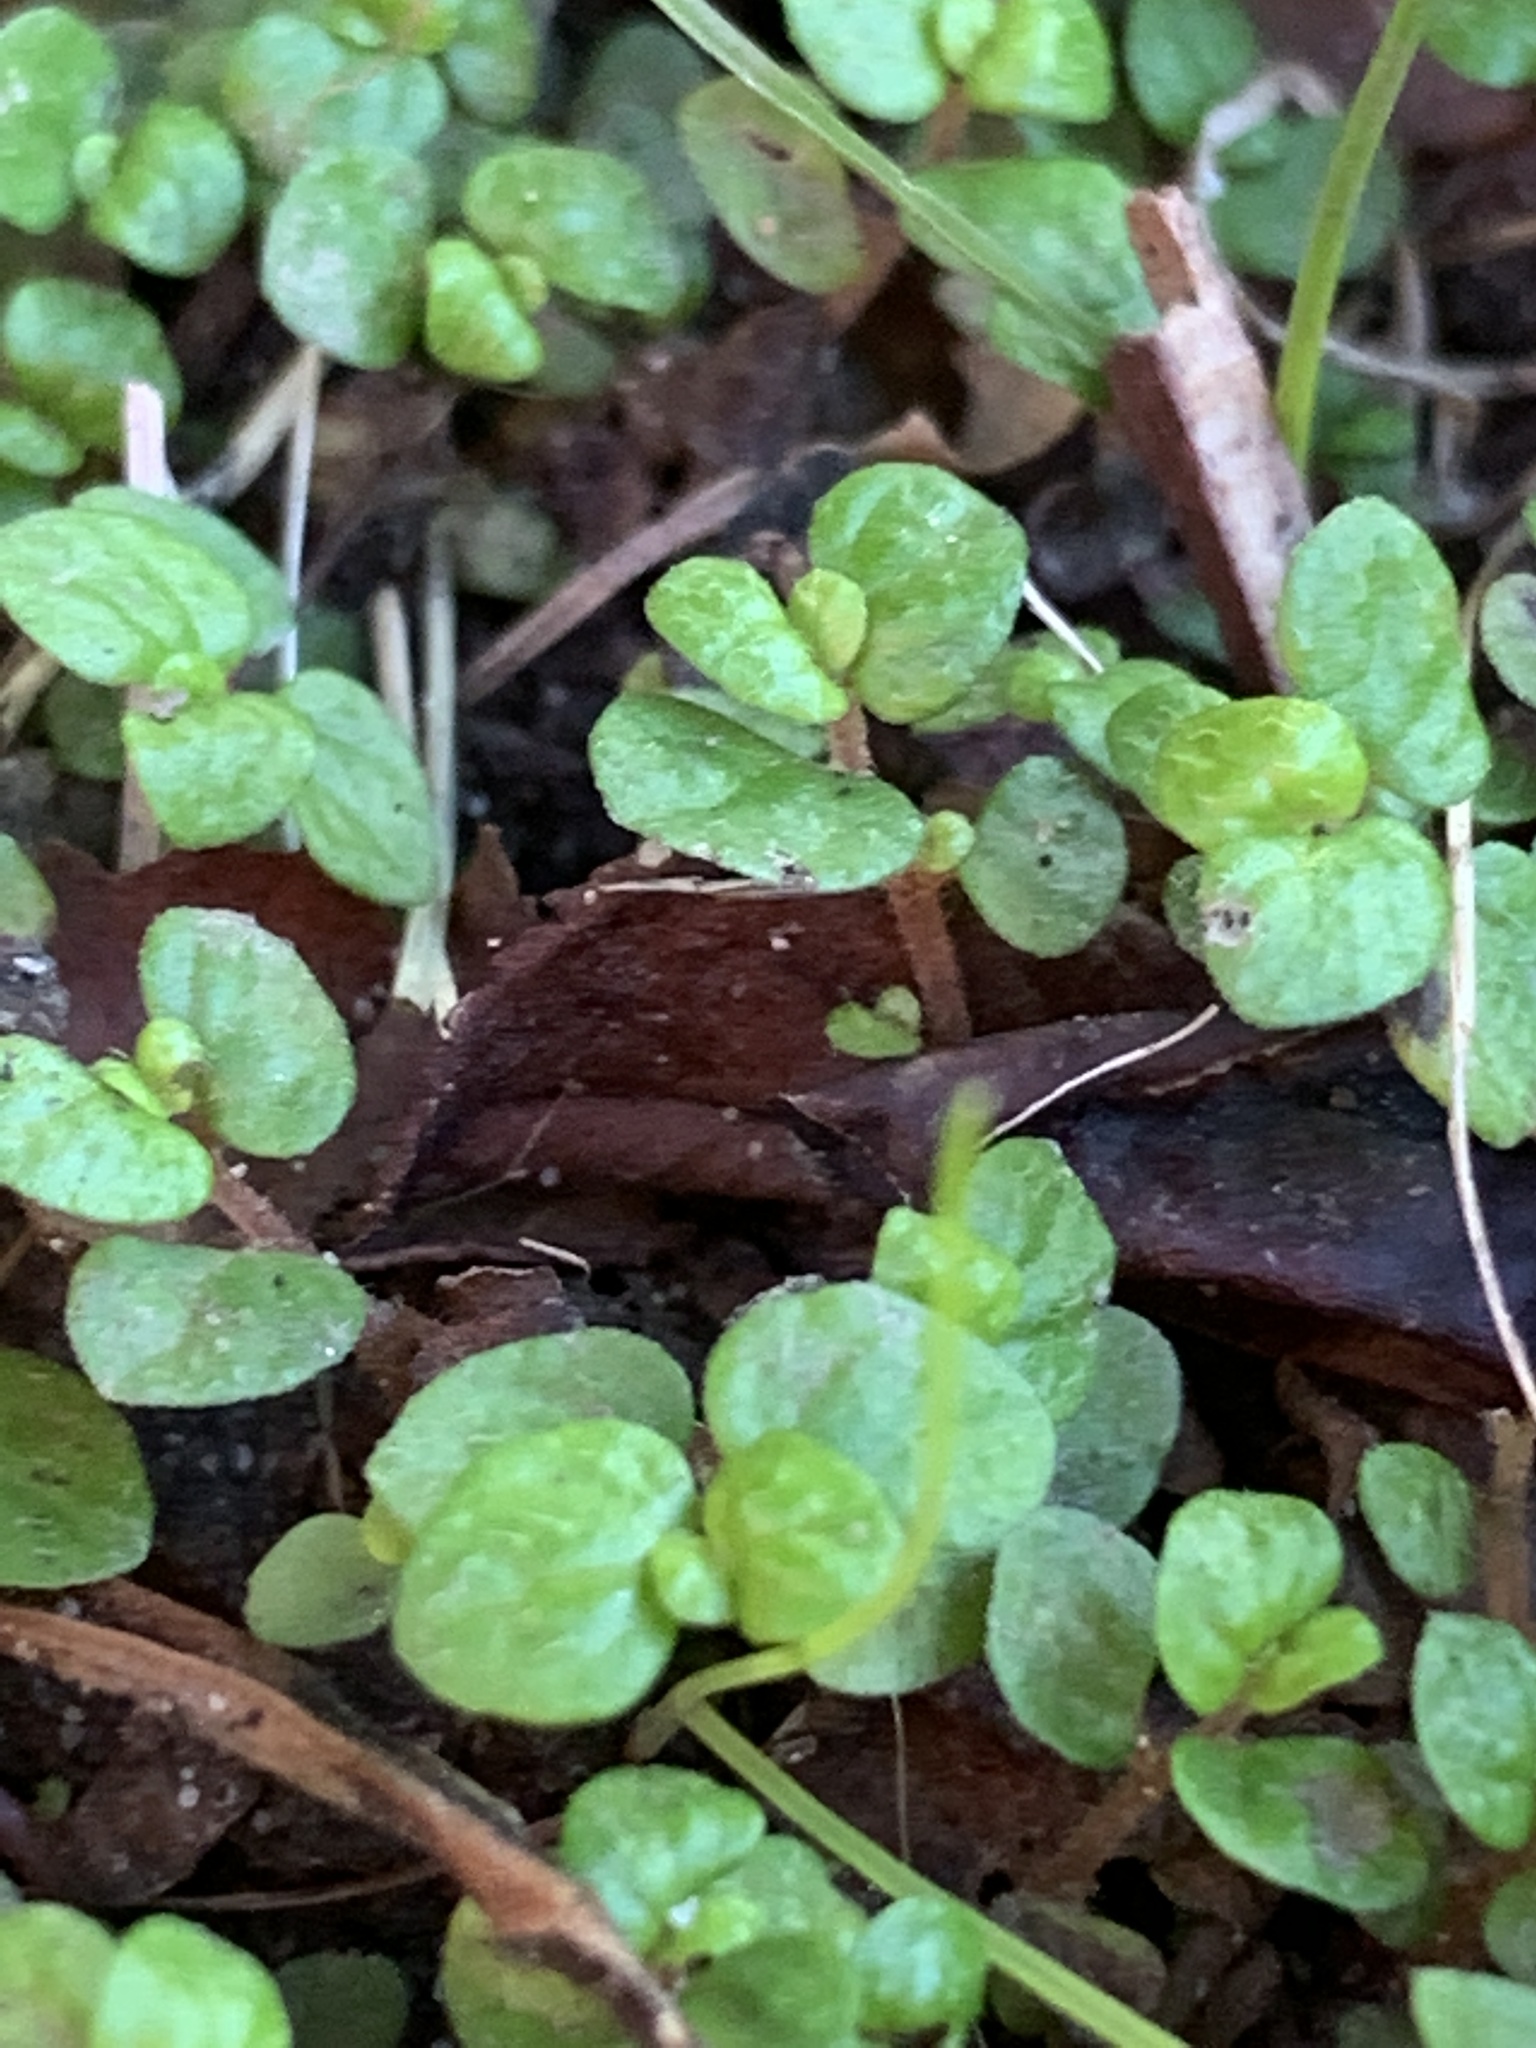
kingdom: Plantae
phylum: Tracheophyta
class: Magnoliopsida
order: Rosales
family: Urticaceae
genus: Soleirolia
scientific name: Soleirolia soleirolii
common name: Mind-your-own-business
